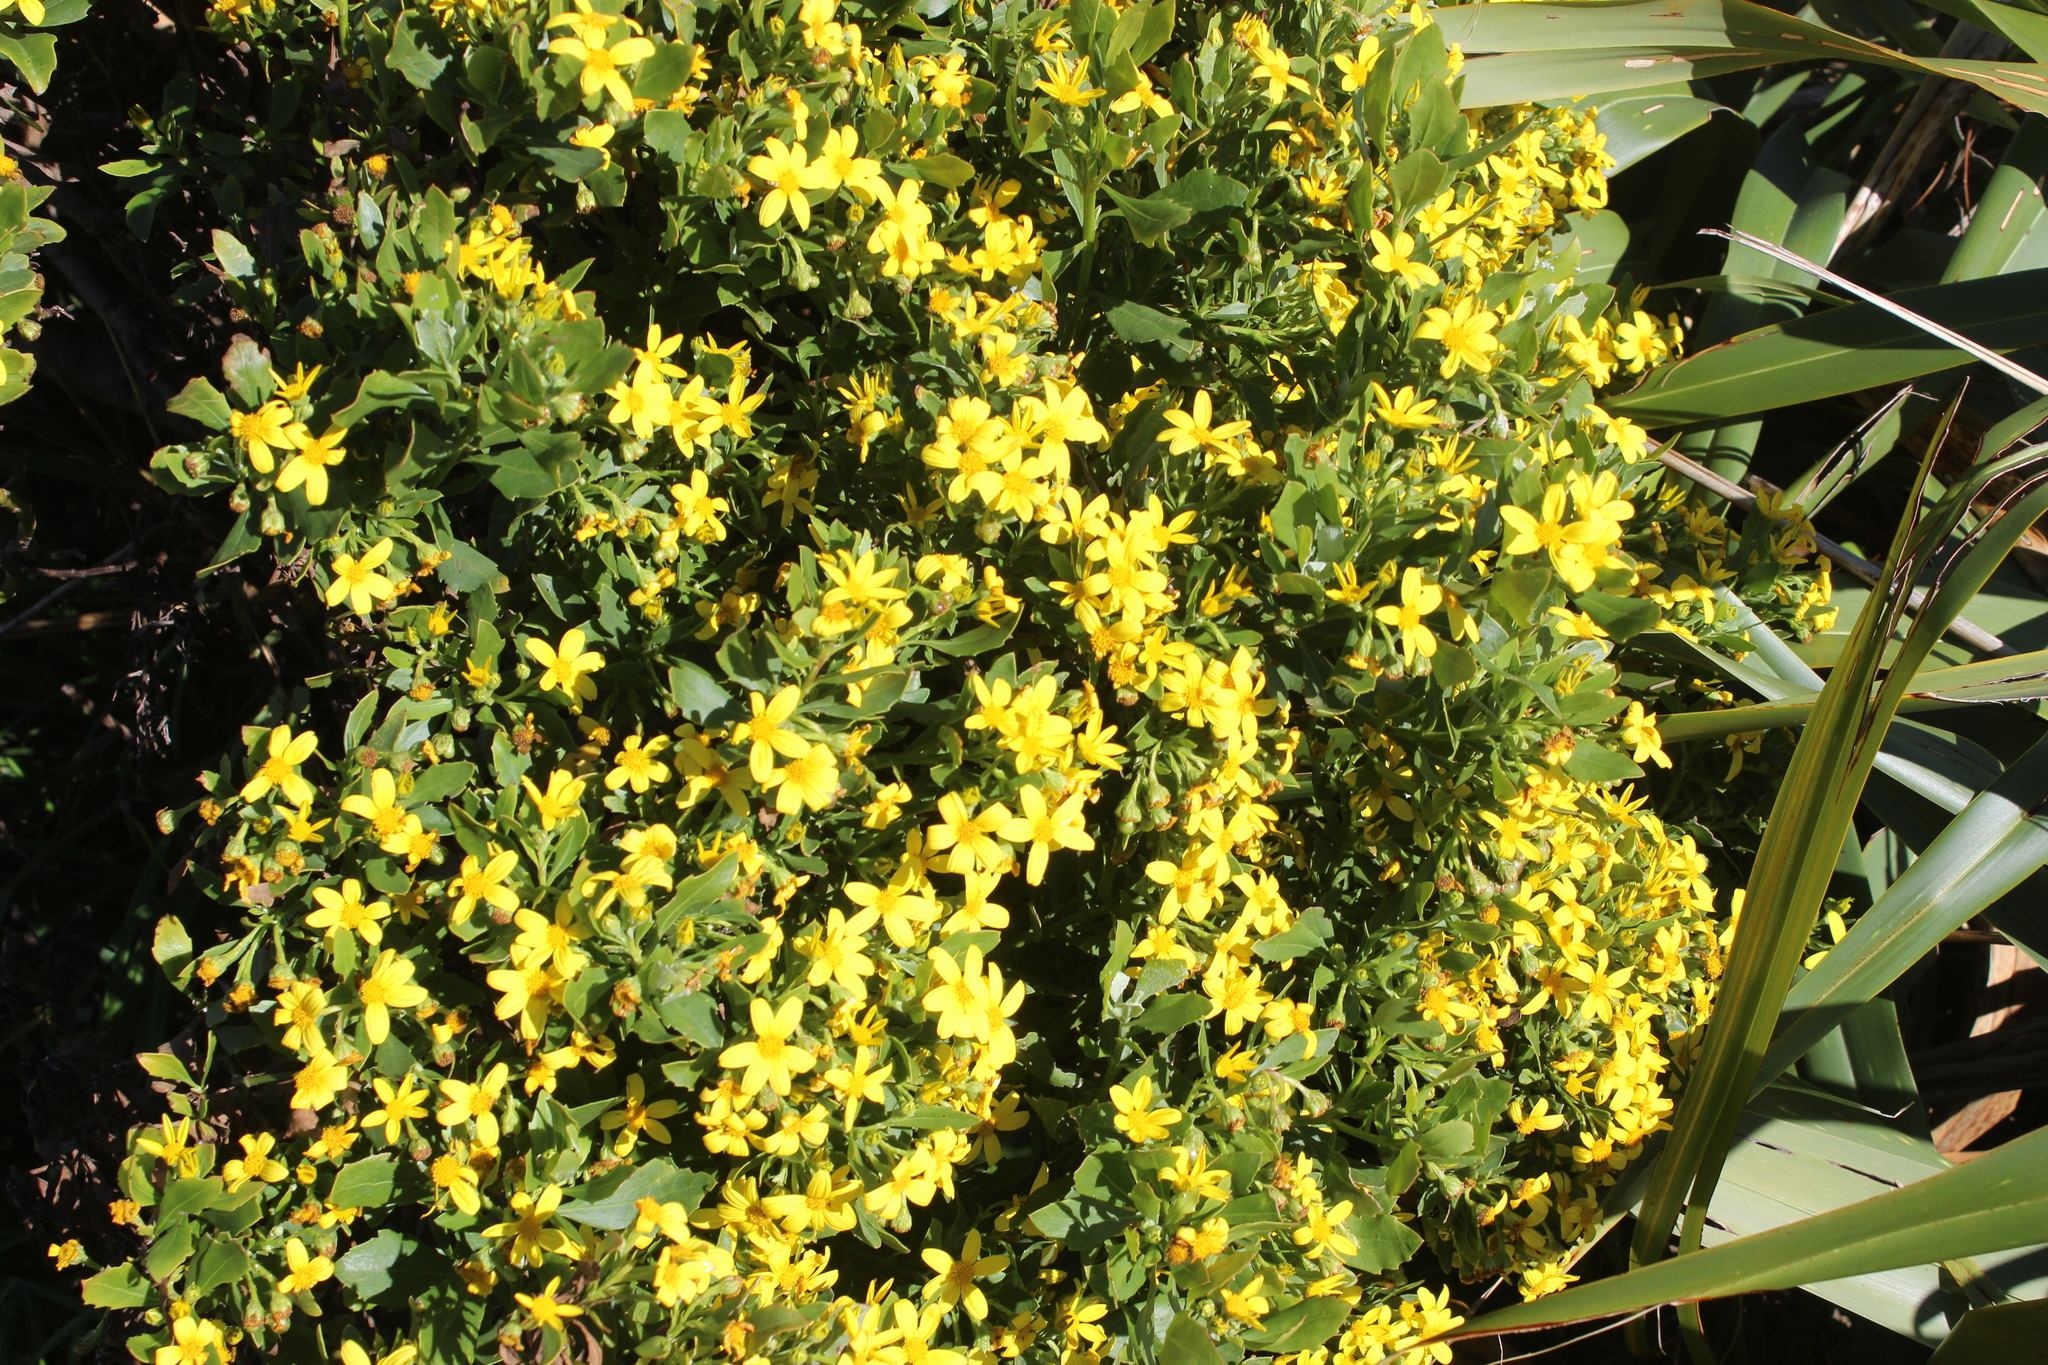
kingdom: Plantae
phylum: Tracheophyta
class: Magnoliopsida
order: Asterales
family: Asteraceae
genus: Osteospermum
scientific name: Osteospermum moniliferum
